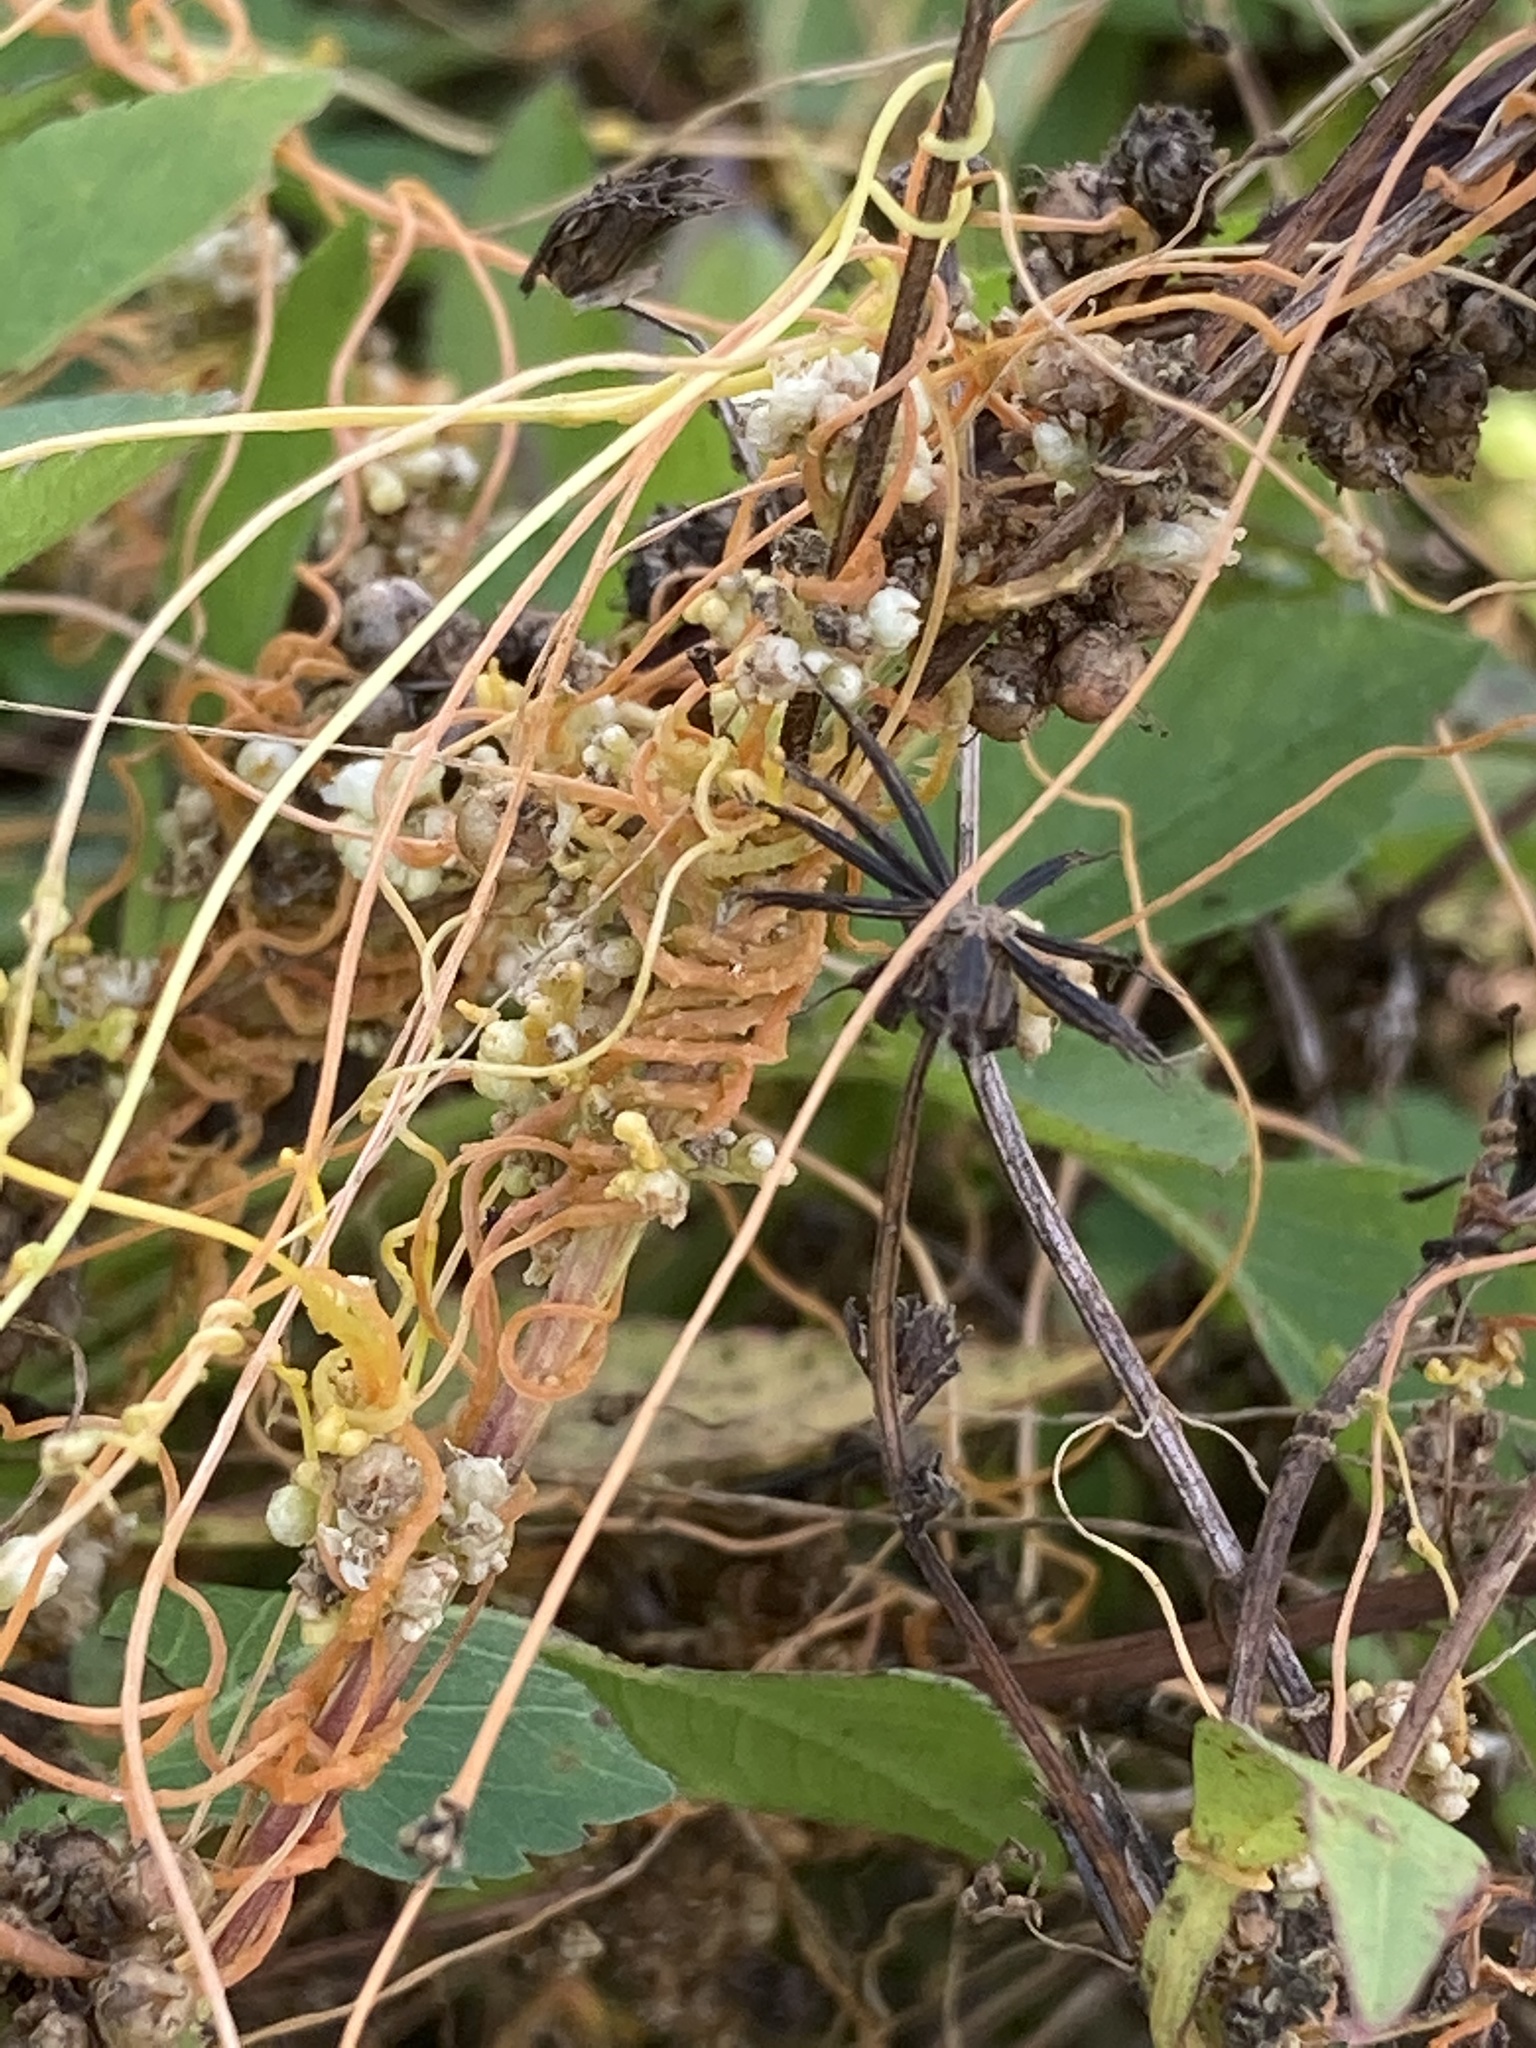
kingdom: Plantae
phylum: Tracheophyta
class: Magnoliopsida
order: Laurales
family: Lauraceae
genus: Cassytha
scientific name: Cassytha filiformis
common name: Dodder-laurel
